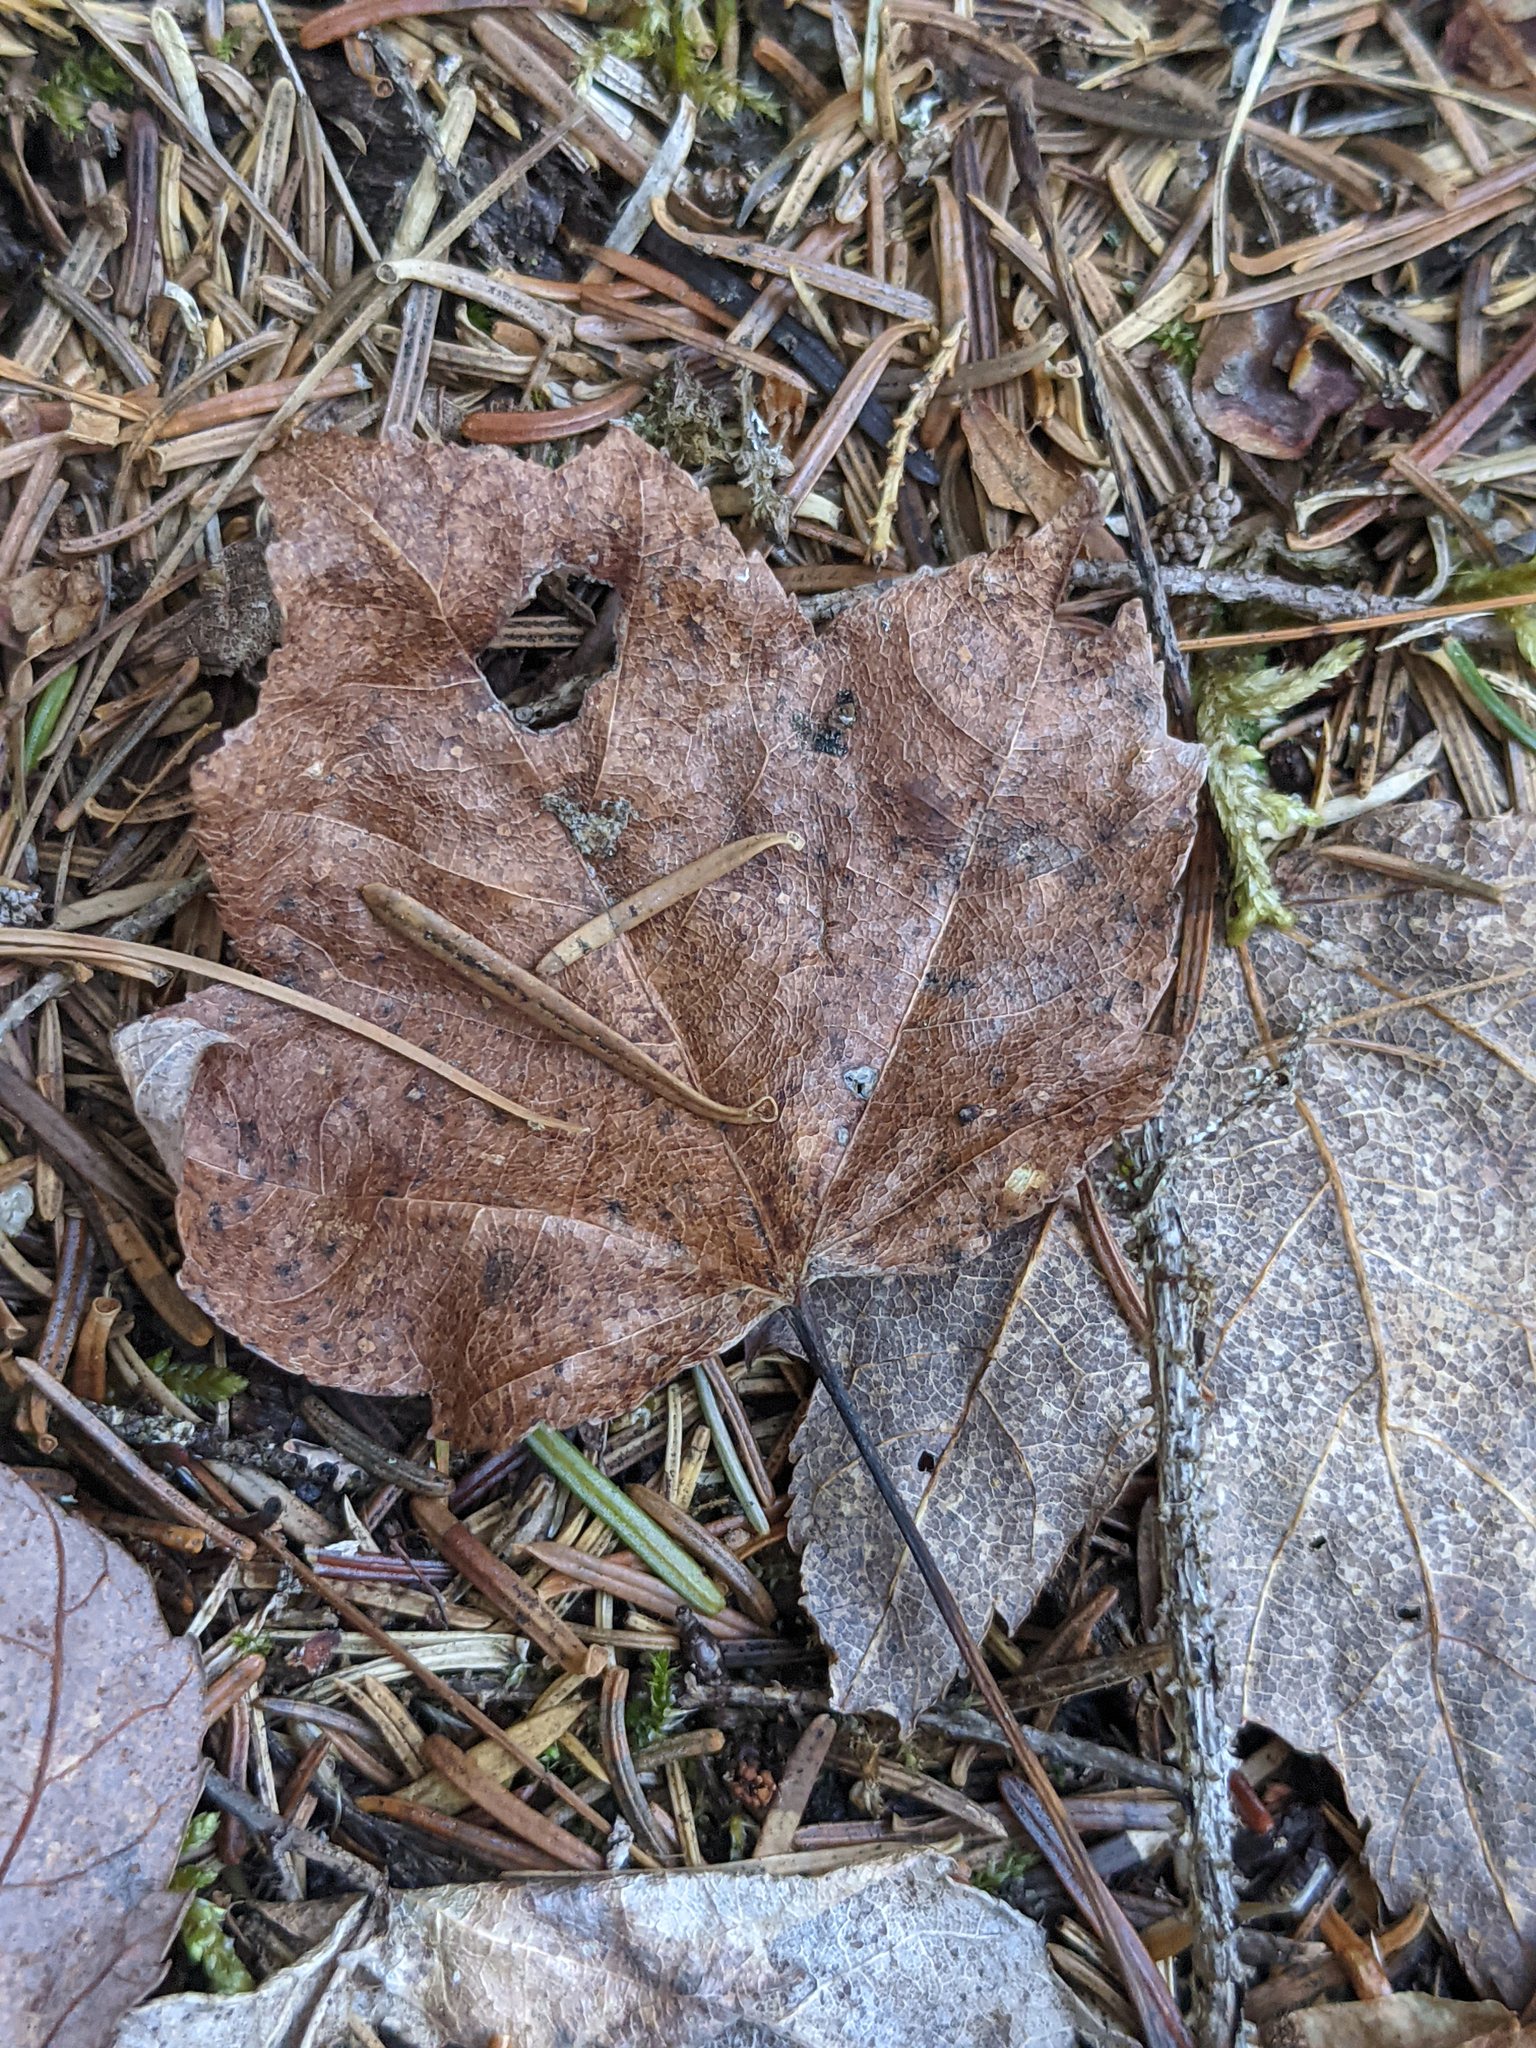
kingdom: Plantae
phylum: Tracheophyta
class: Magnoliopsida
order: Sapindales
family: Sapindaceae
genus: Acer
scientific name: Acer rubrum
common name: Red maple
